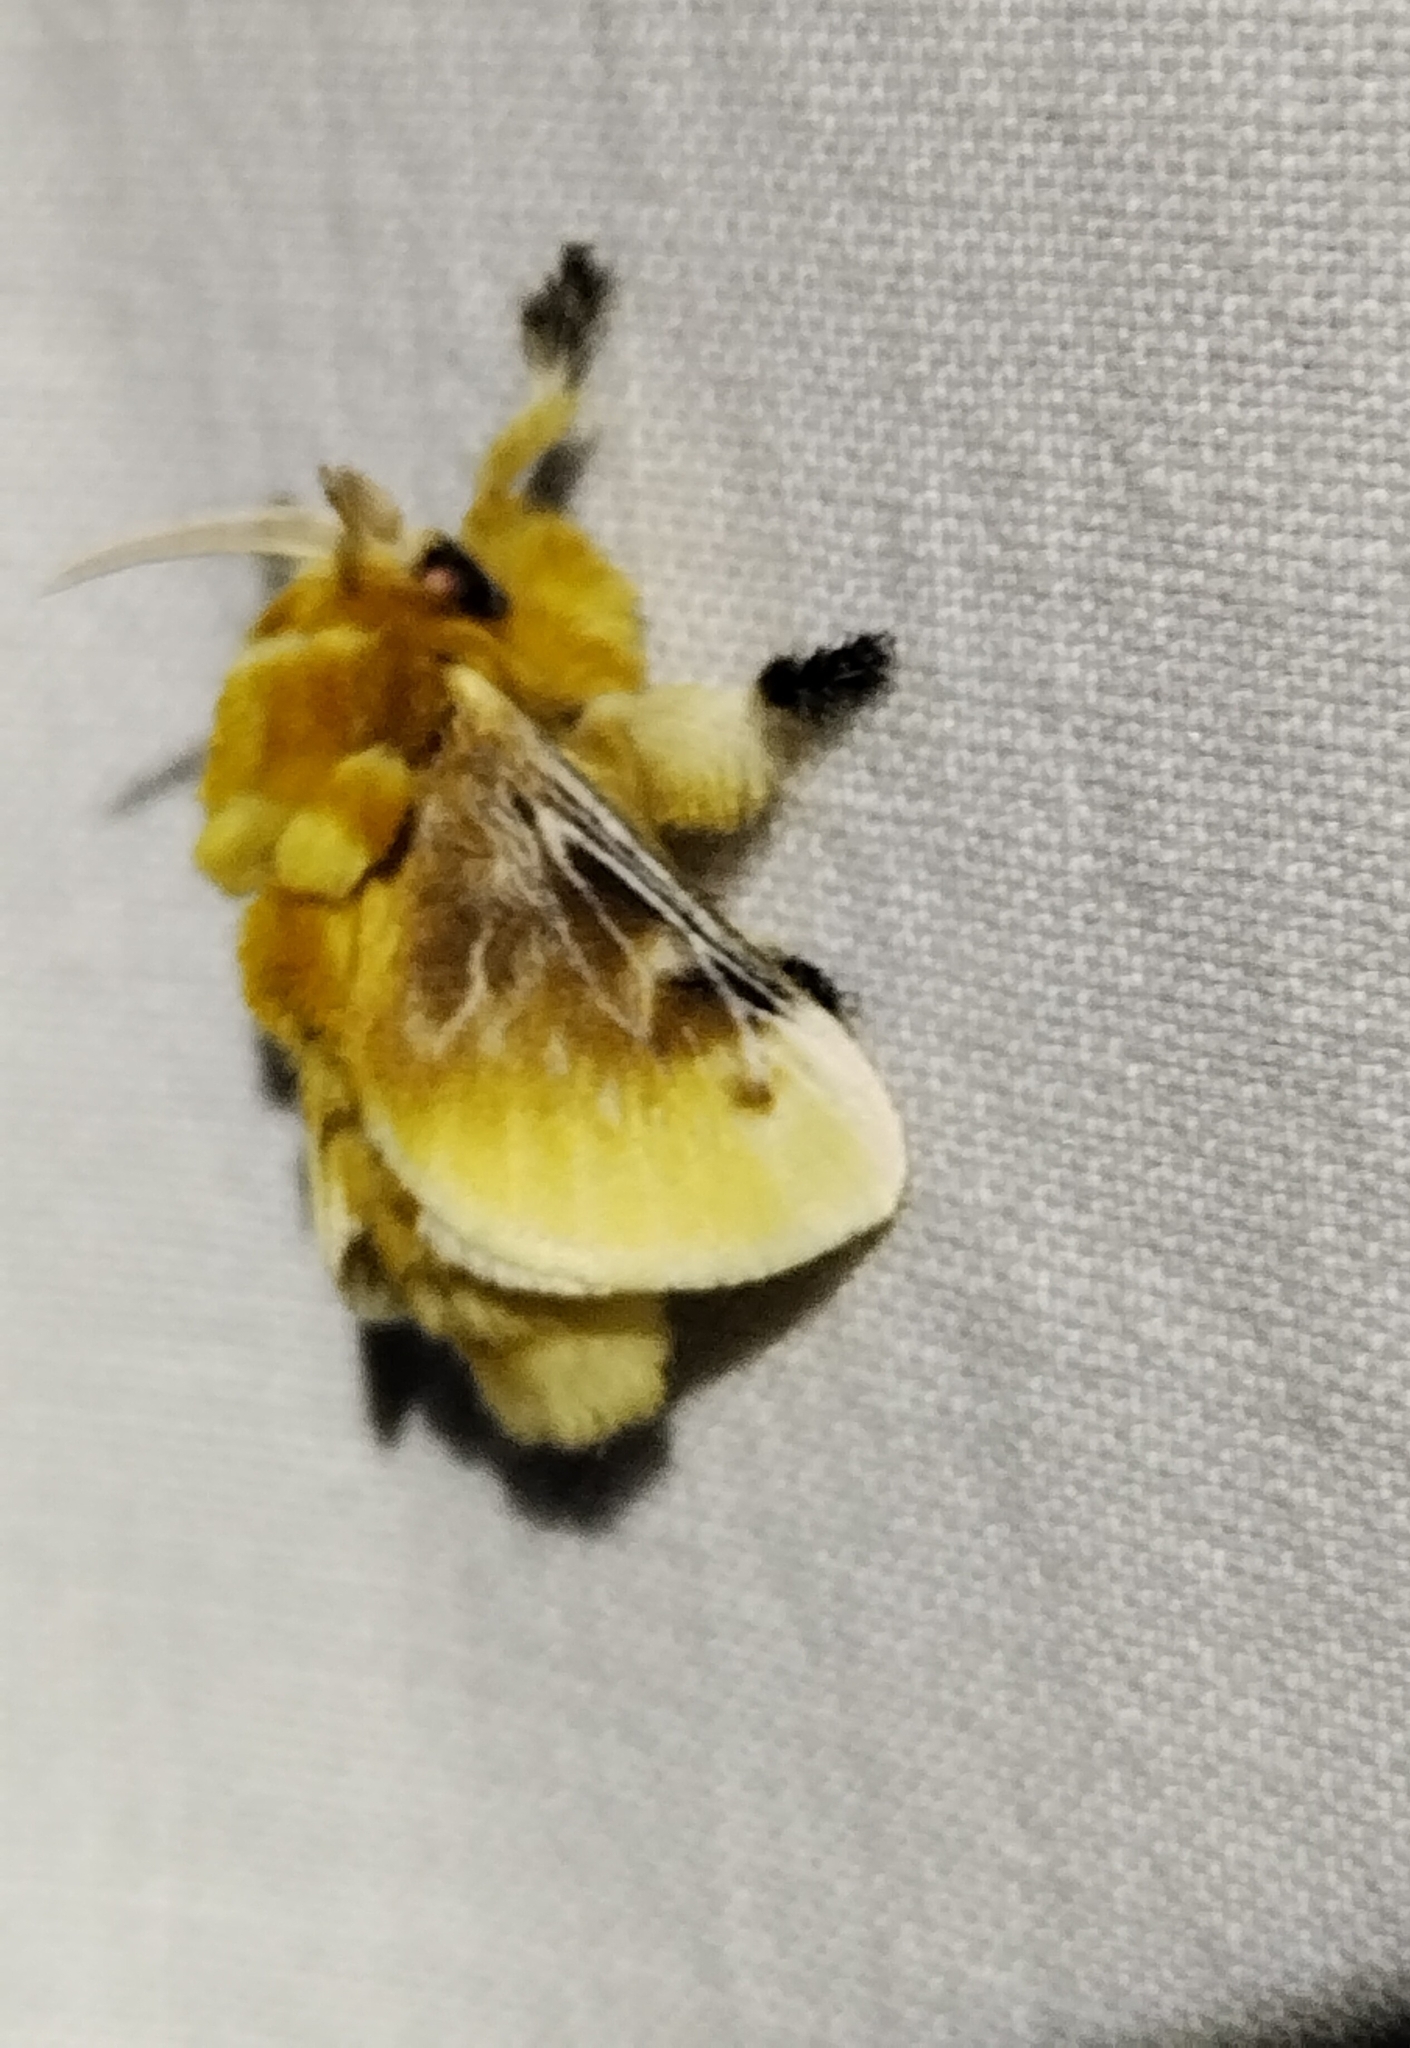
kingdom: Animalia
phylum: Arthropoda
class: Insecta
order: Lepidoptera
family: Megalopygidae
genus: Megalopyge
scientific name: Megalopyge opercularis
